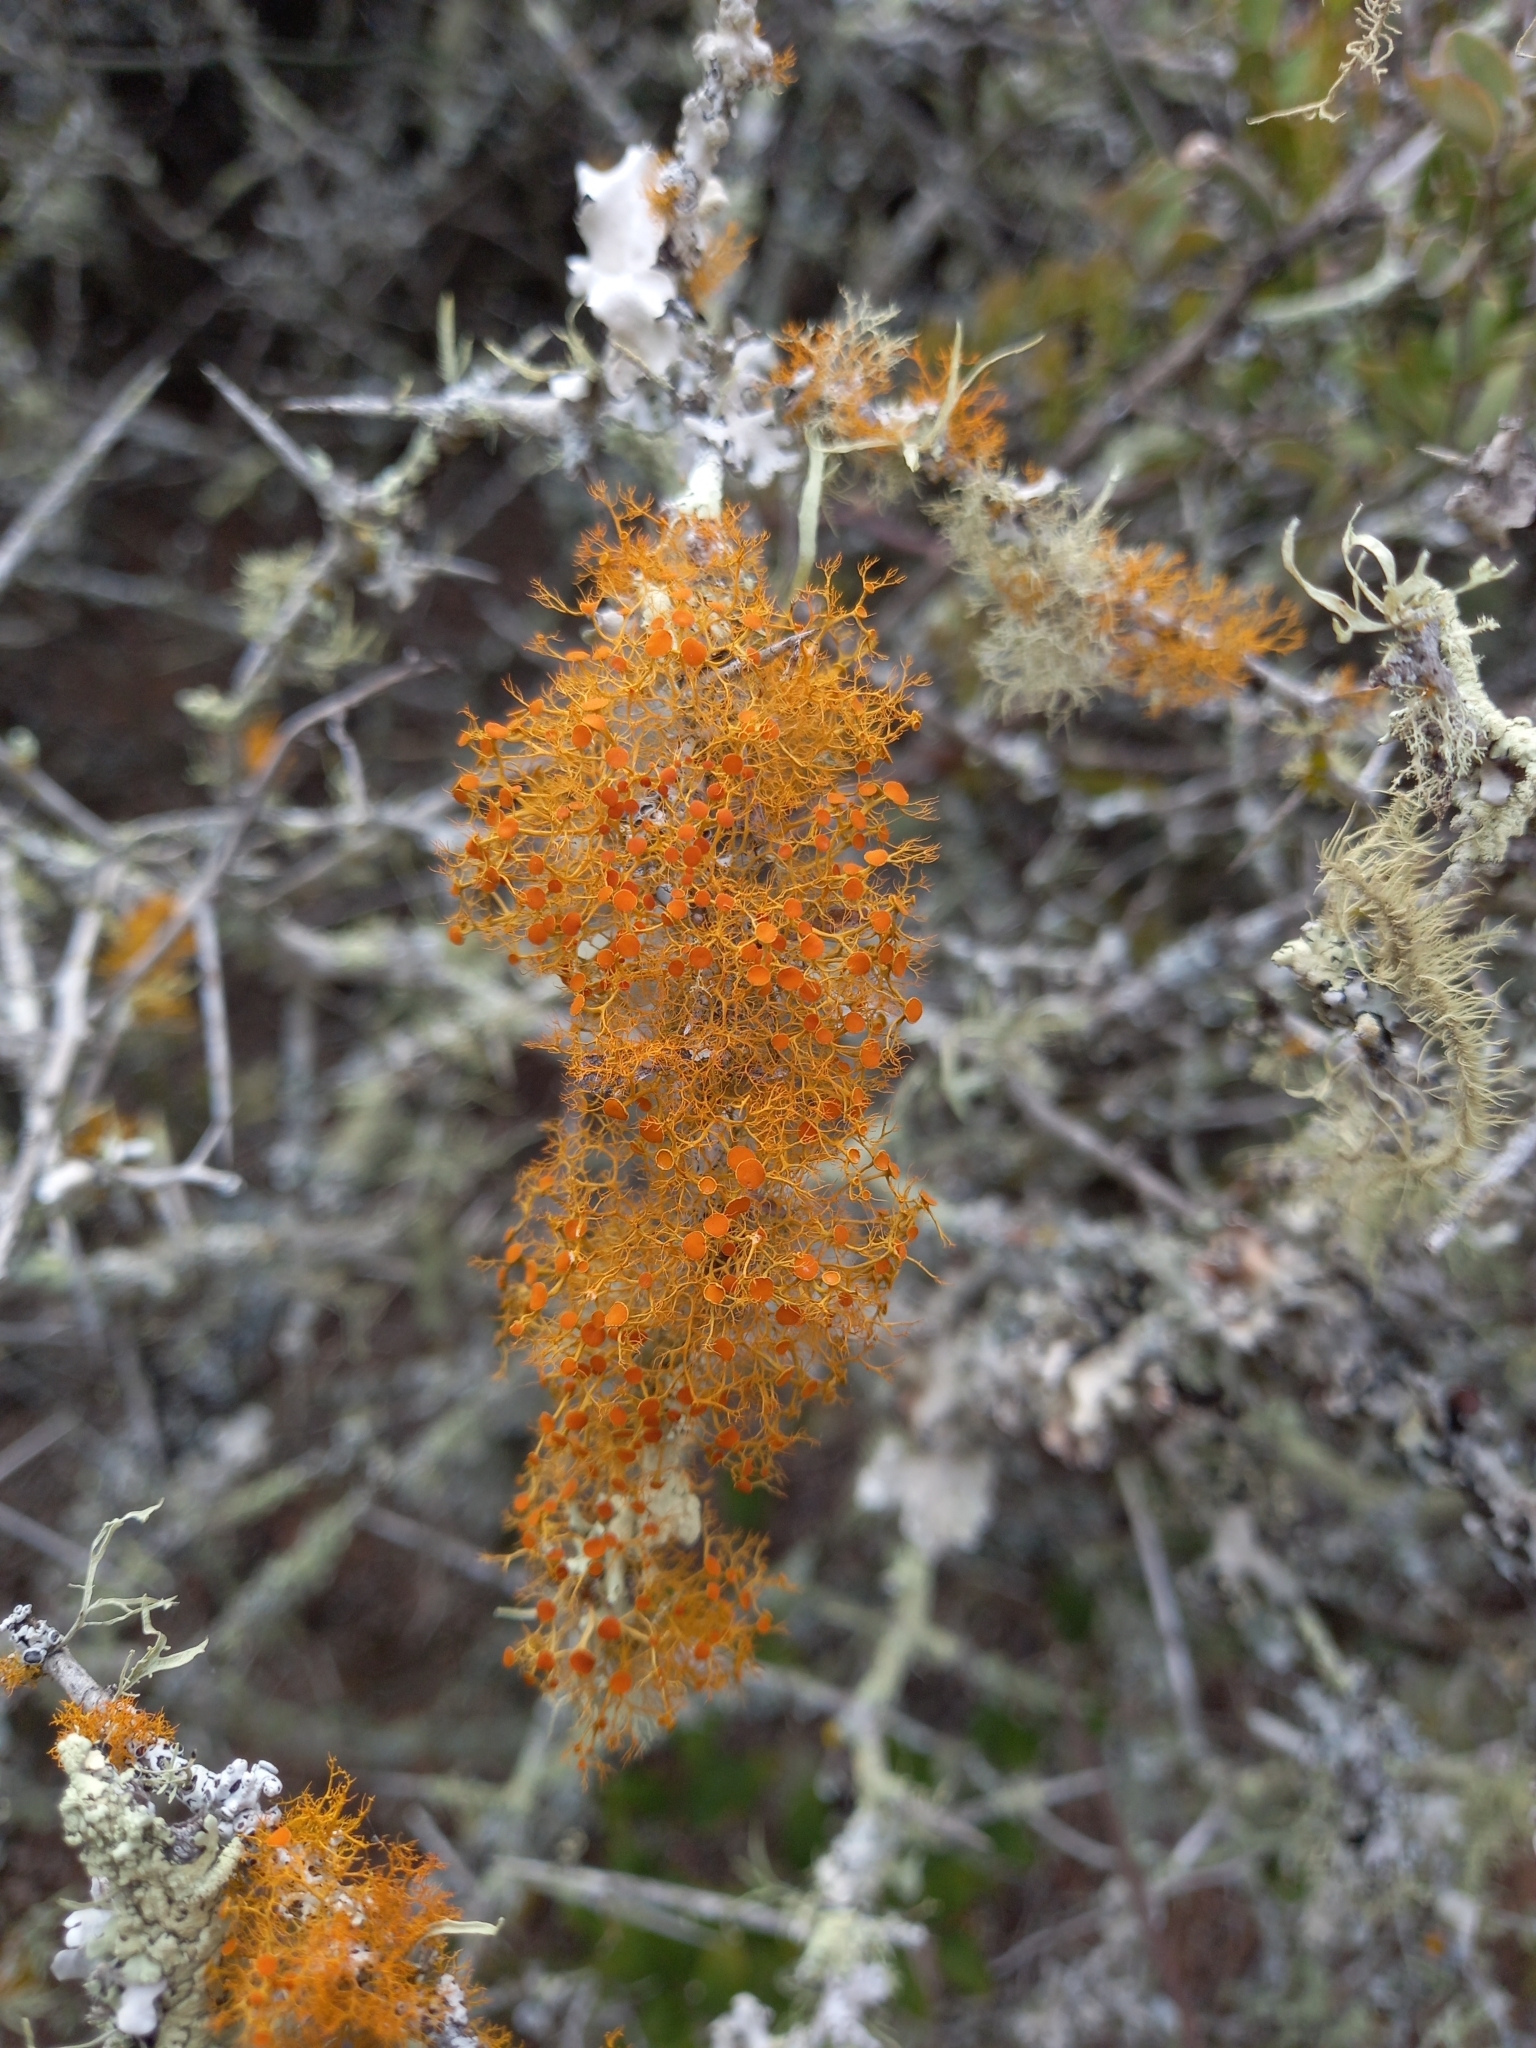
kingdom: Fungi
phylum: Ascomycota
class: Lecanoromycetes
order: Teloschistales
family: Teloschistaceae
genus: Teloschistes
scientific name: Teloschistes exilis
